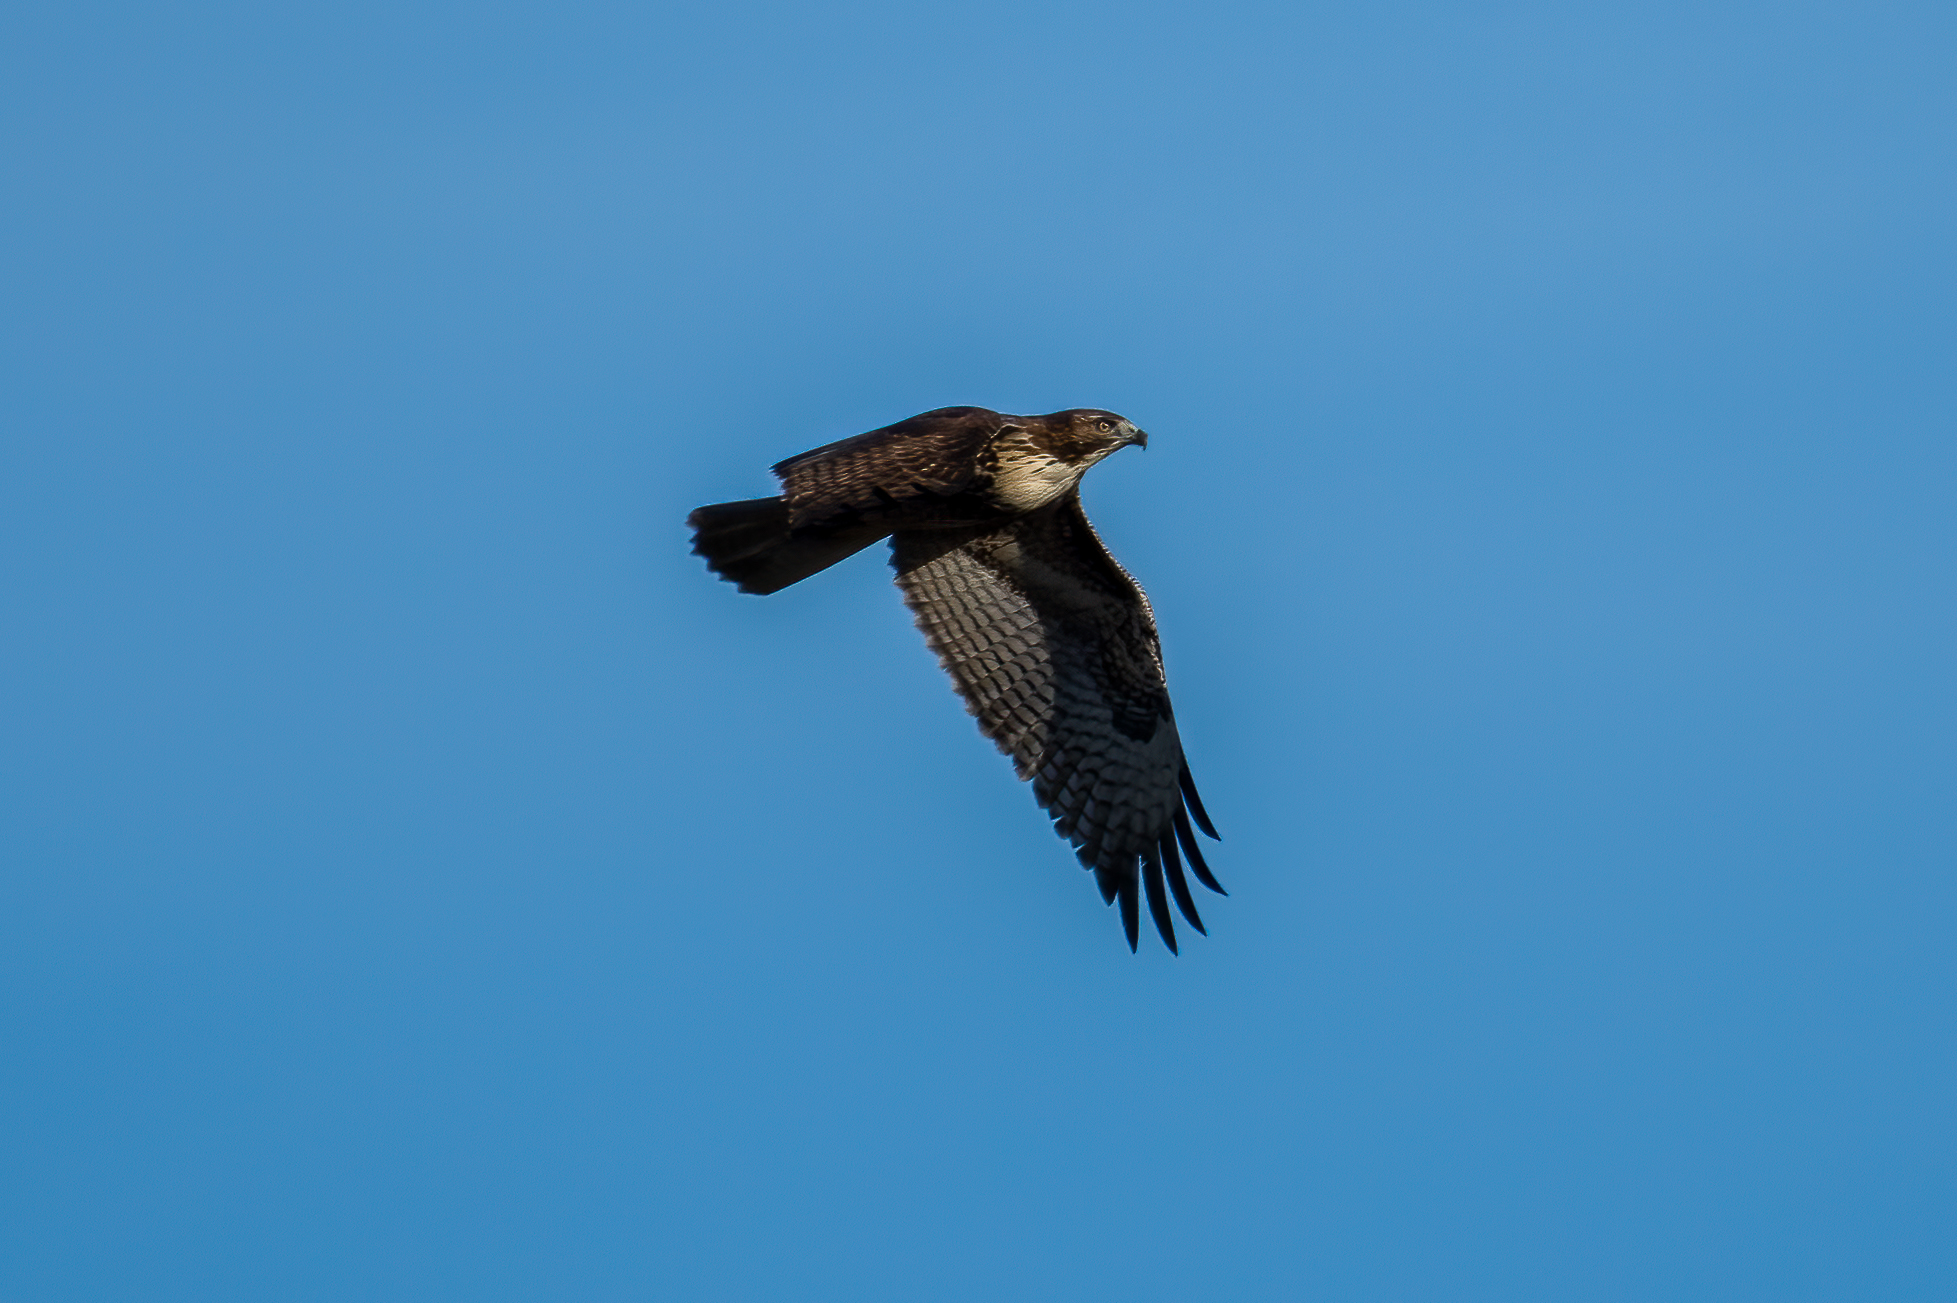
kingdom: Animalia
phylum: Chordata
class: Aves
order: Accipitriformes
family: Accipitridae
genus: Buteo
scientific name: Buteo jamaicensis
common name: Red-tailed hawk
